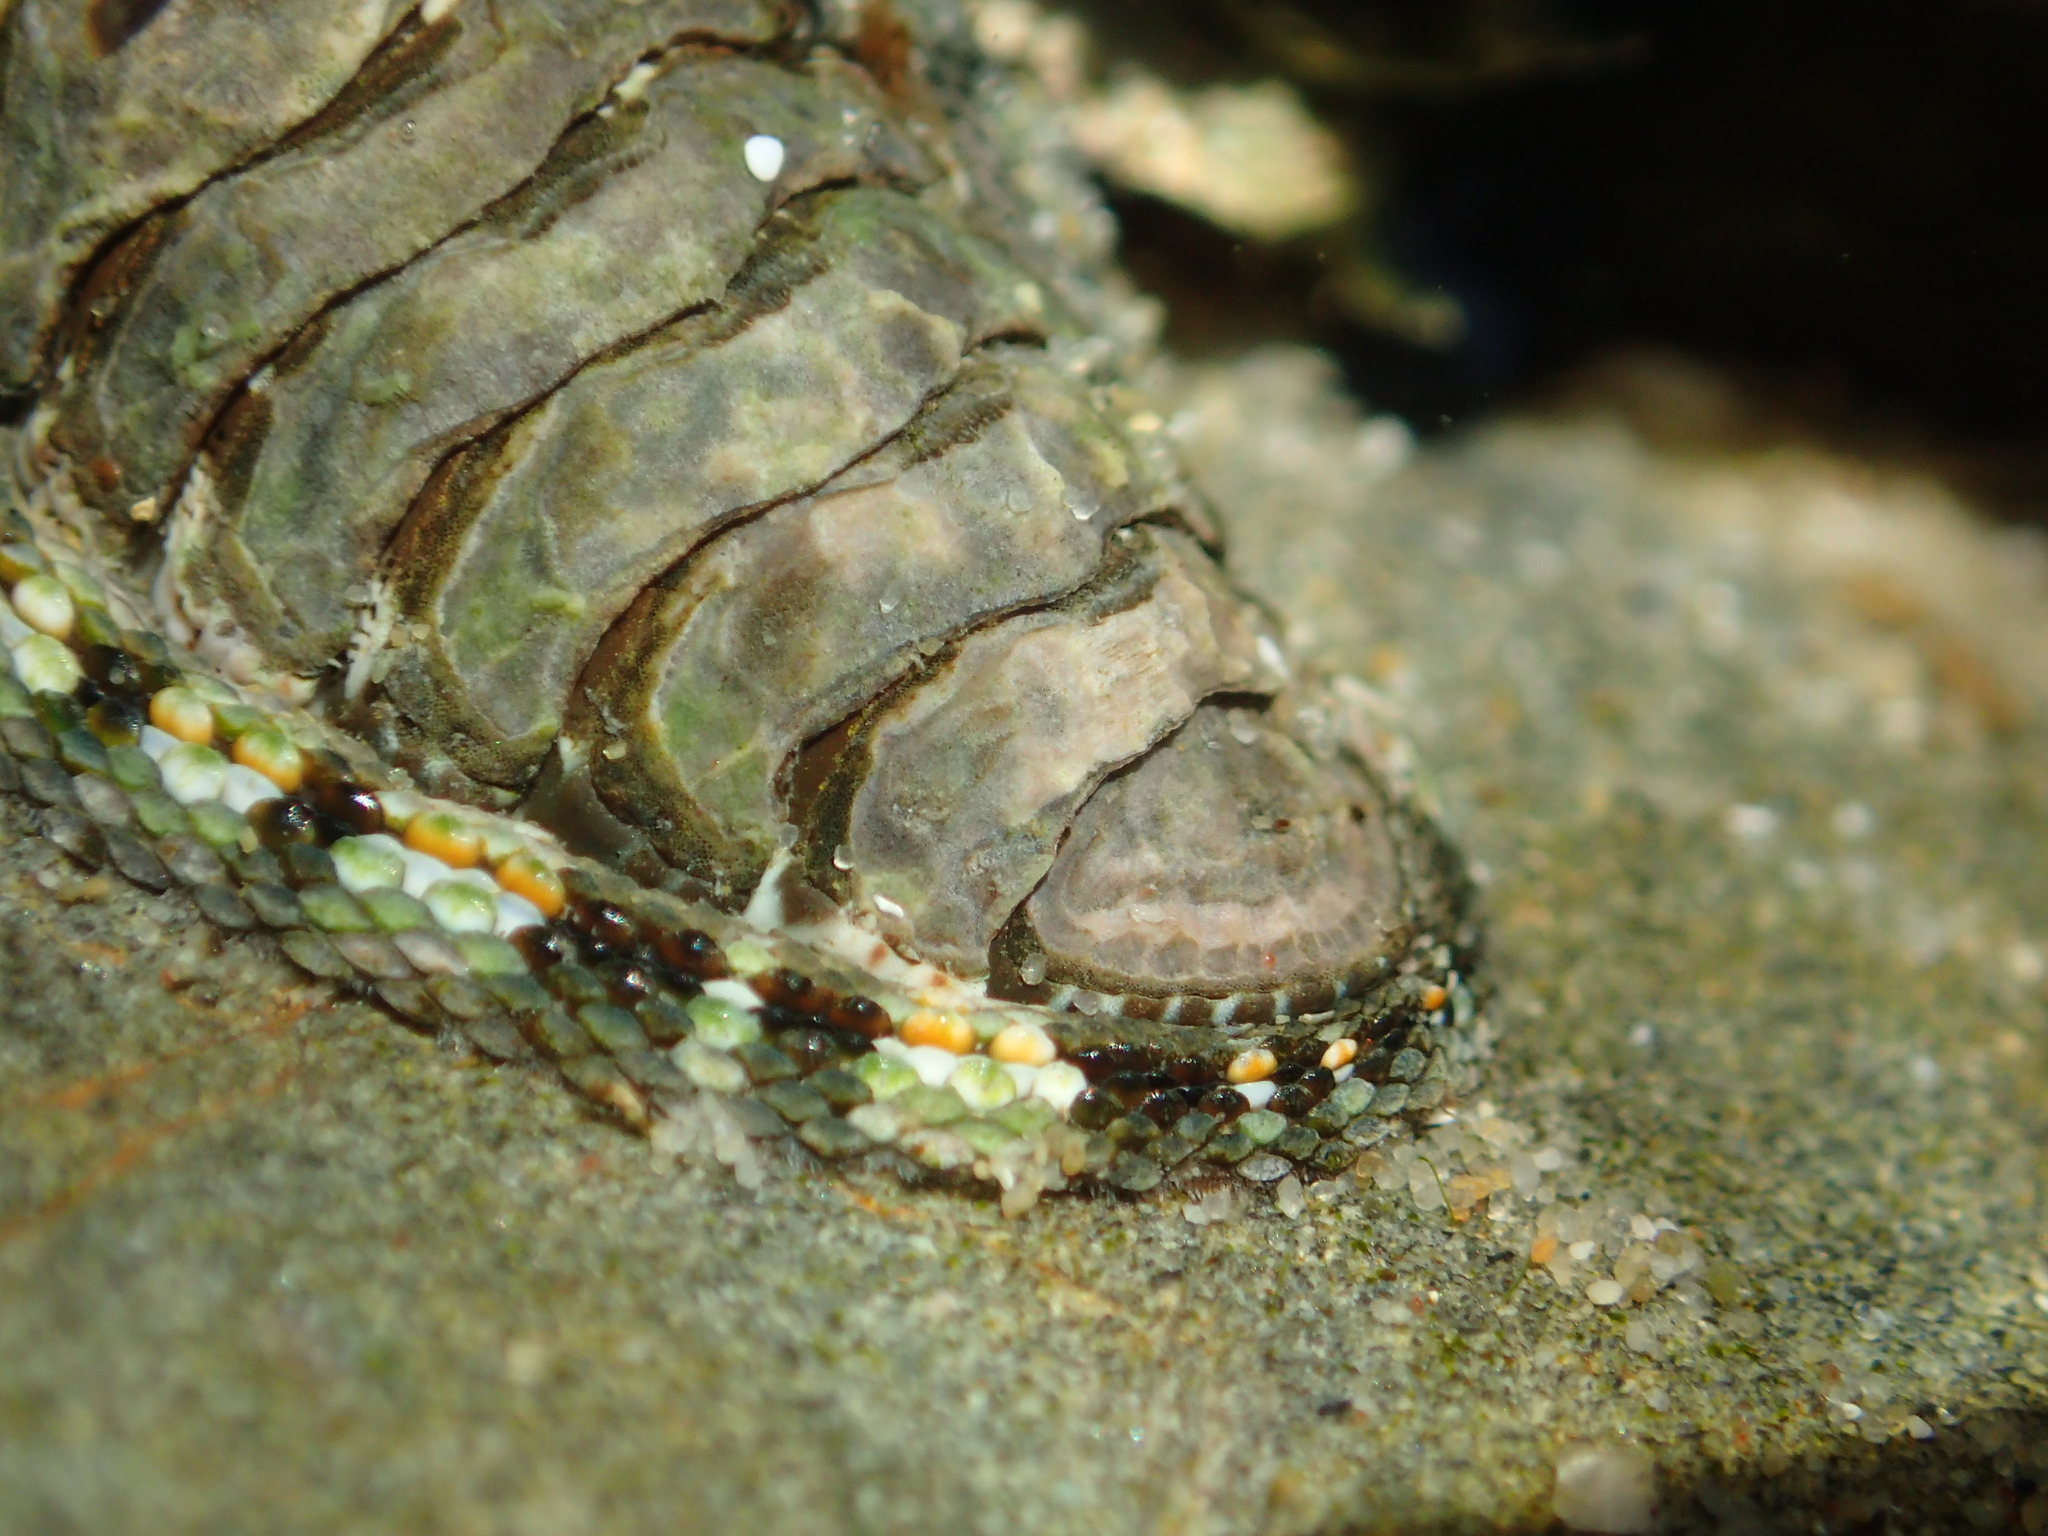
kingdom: Animalia
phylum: Mollusca
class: Polyplacophora
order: Chitonida
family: Chitonidae
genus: Sypharochiton
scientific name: Sypharochiton sinclairi
